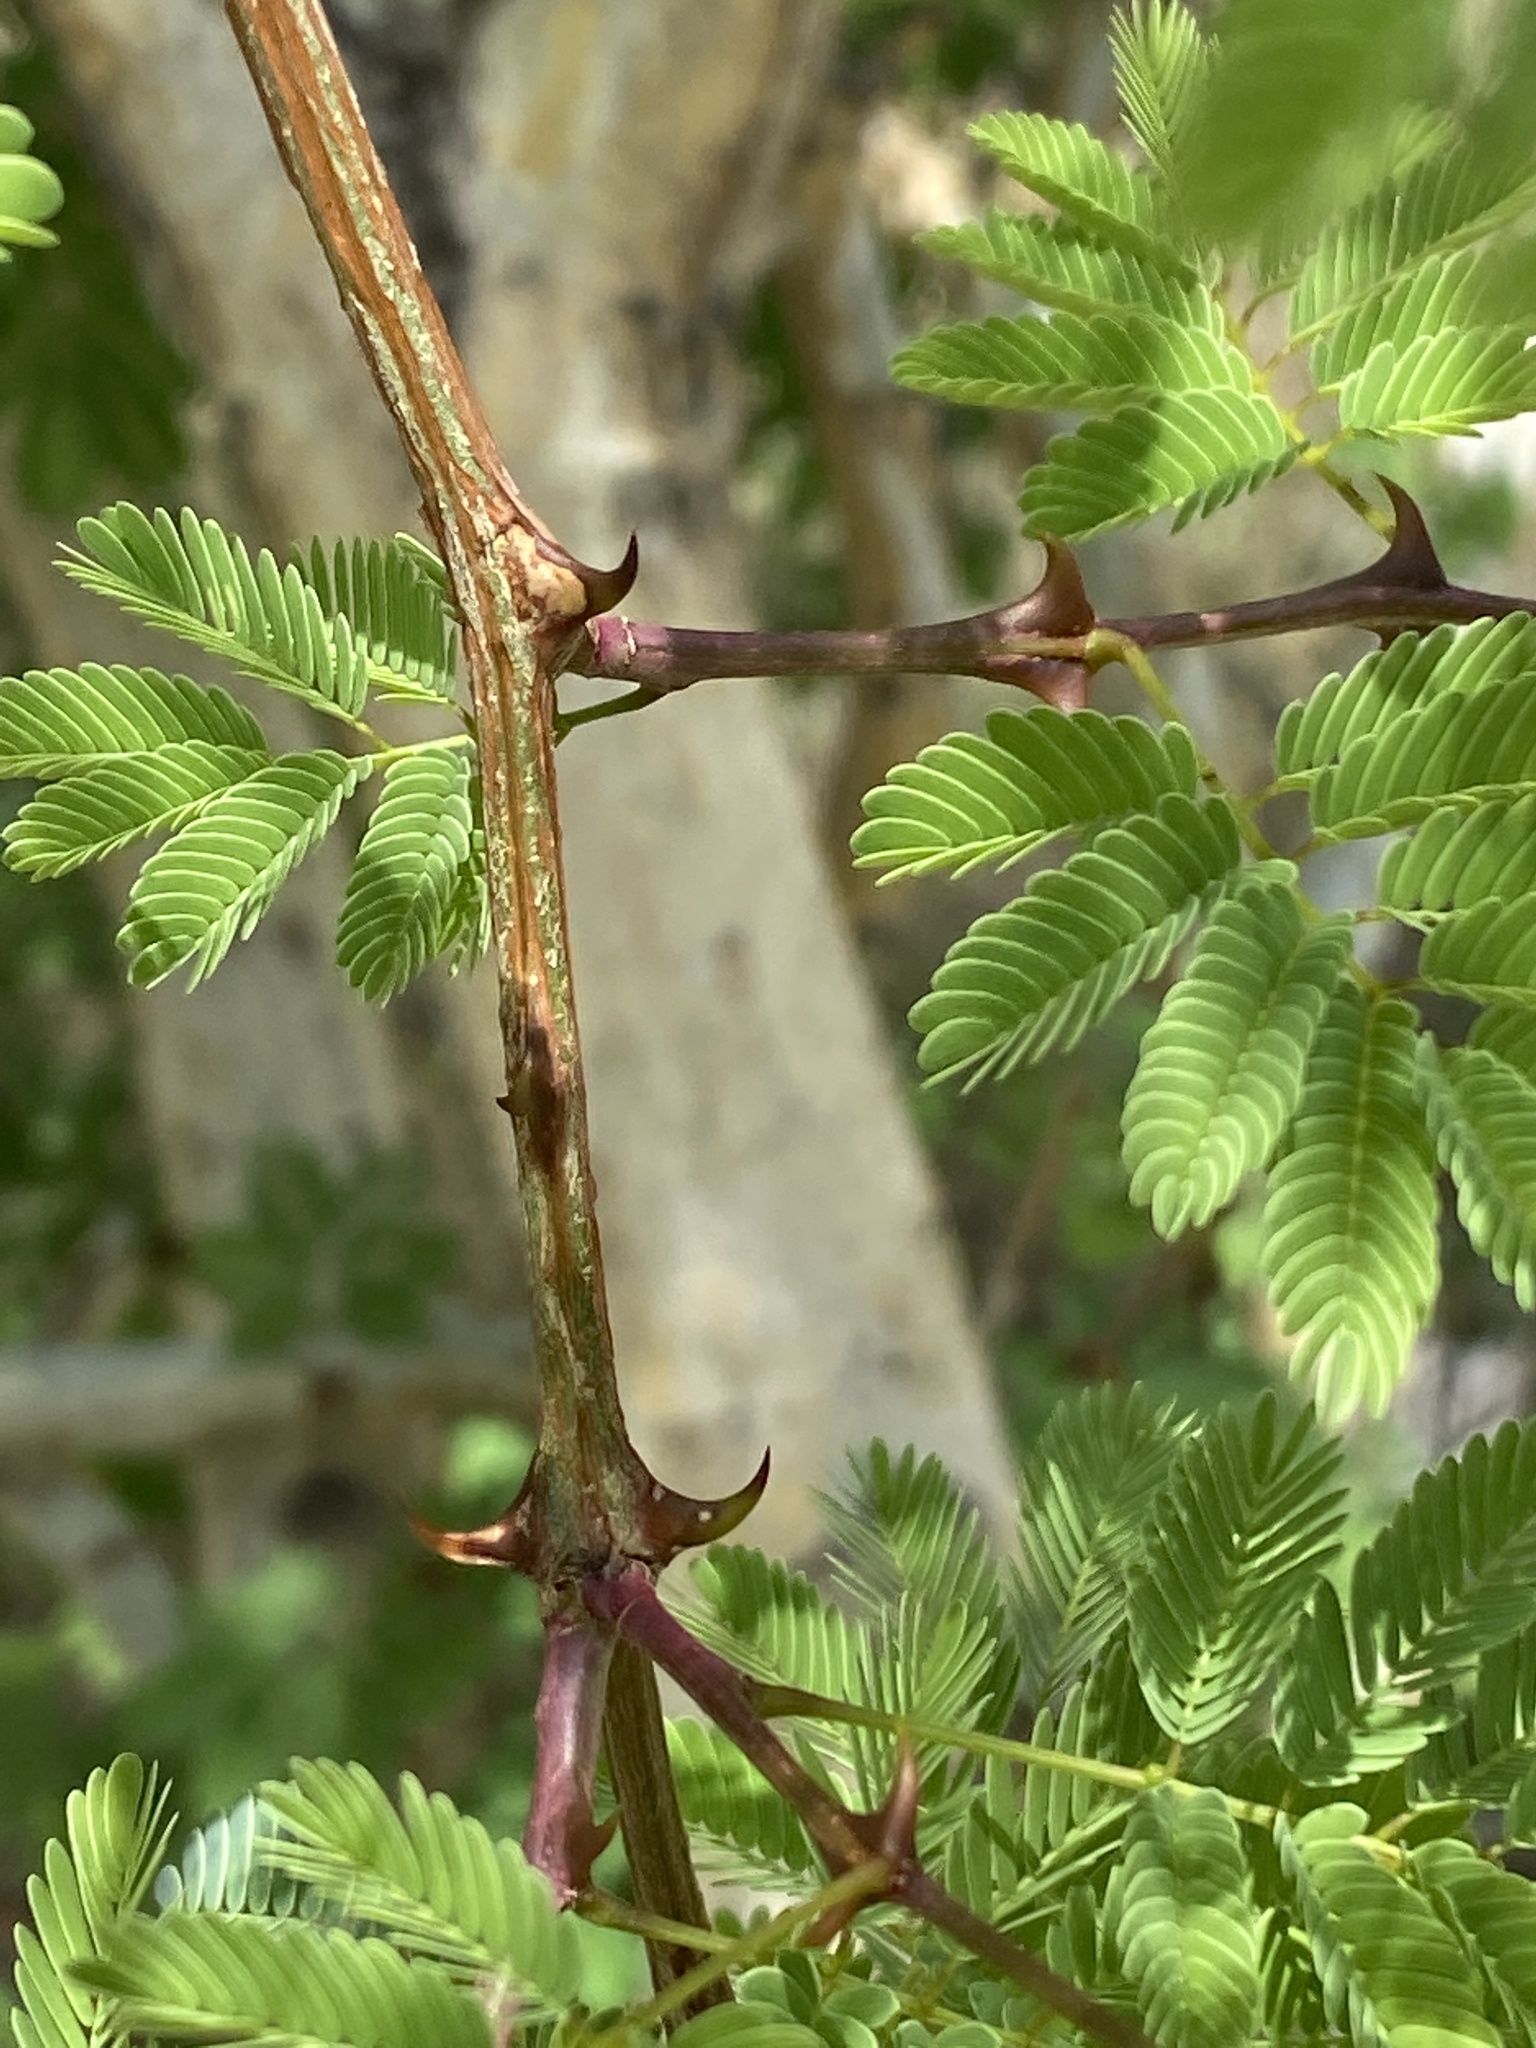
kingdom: Plantae
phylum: Tracheophyta
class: Magnoliopsida
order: Fabales
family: Fabaceae
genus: Senegalia
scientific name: Senegalia erubescens
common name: Bluethorn
